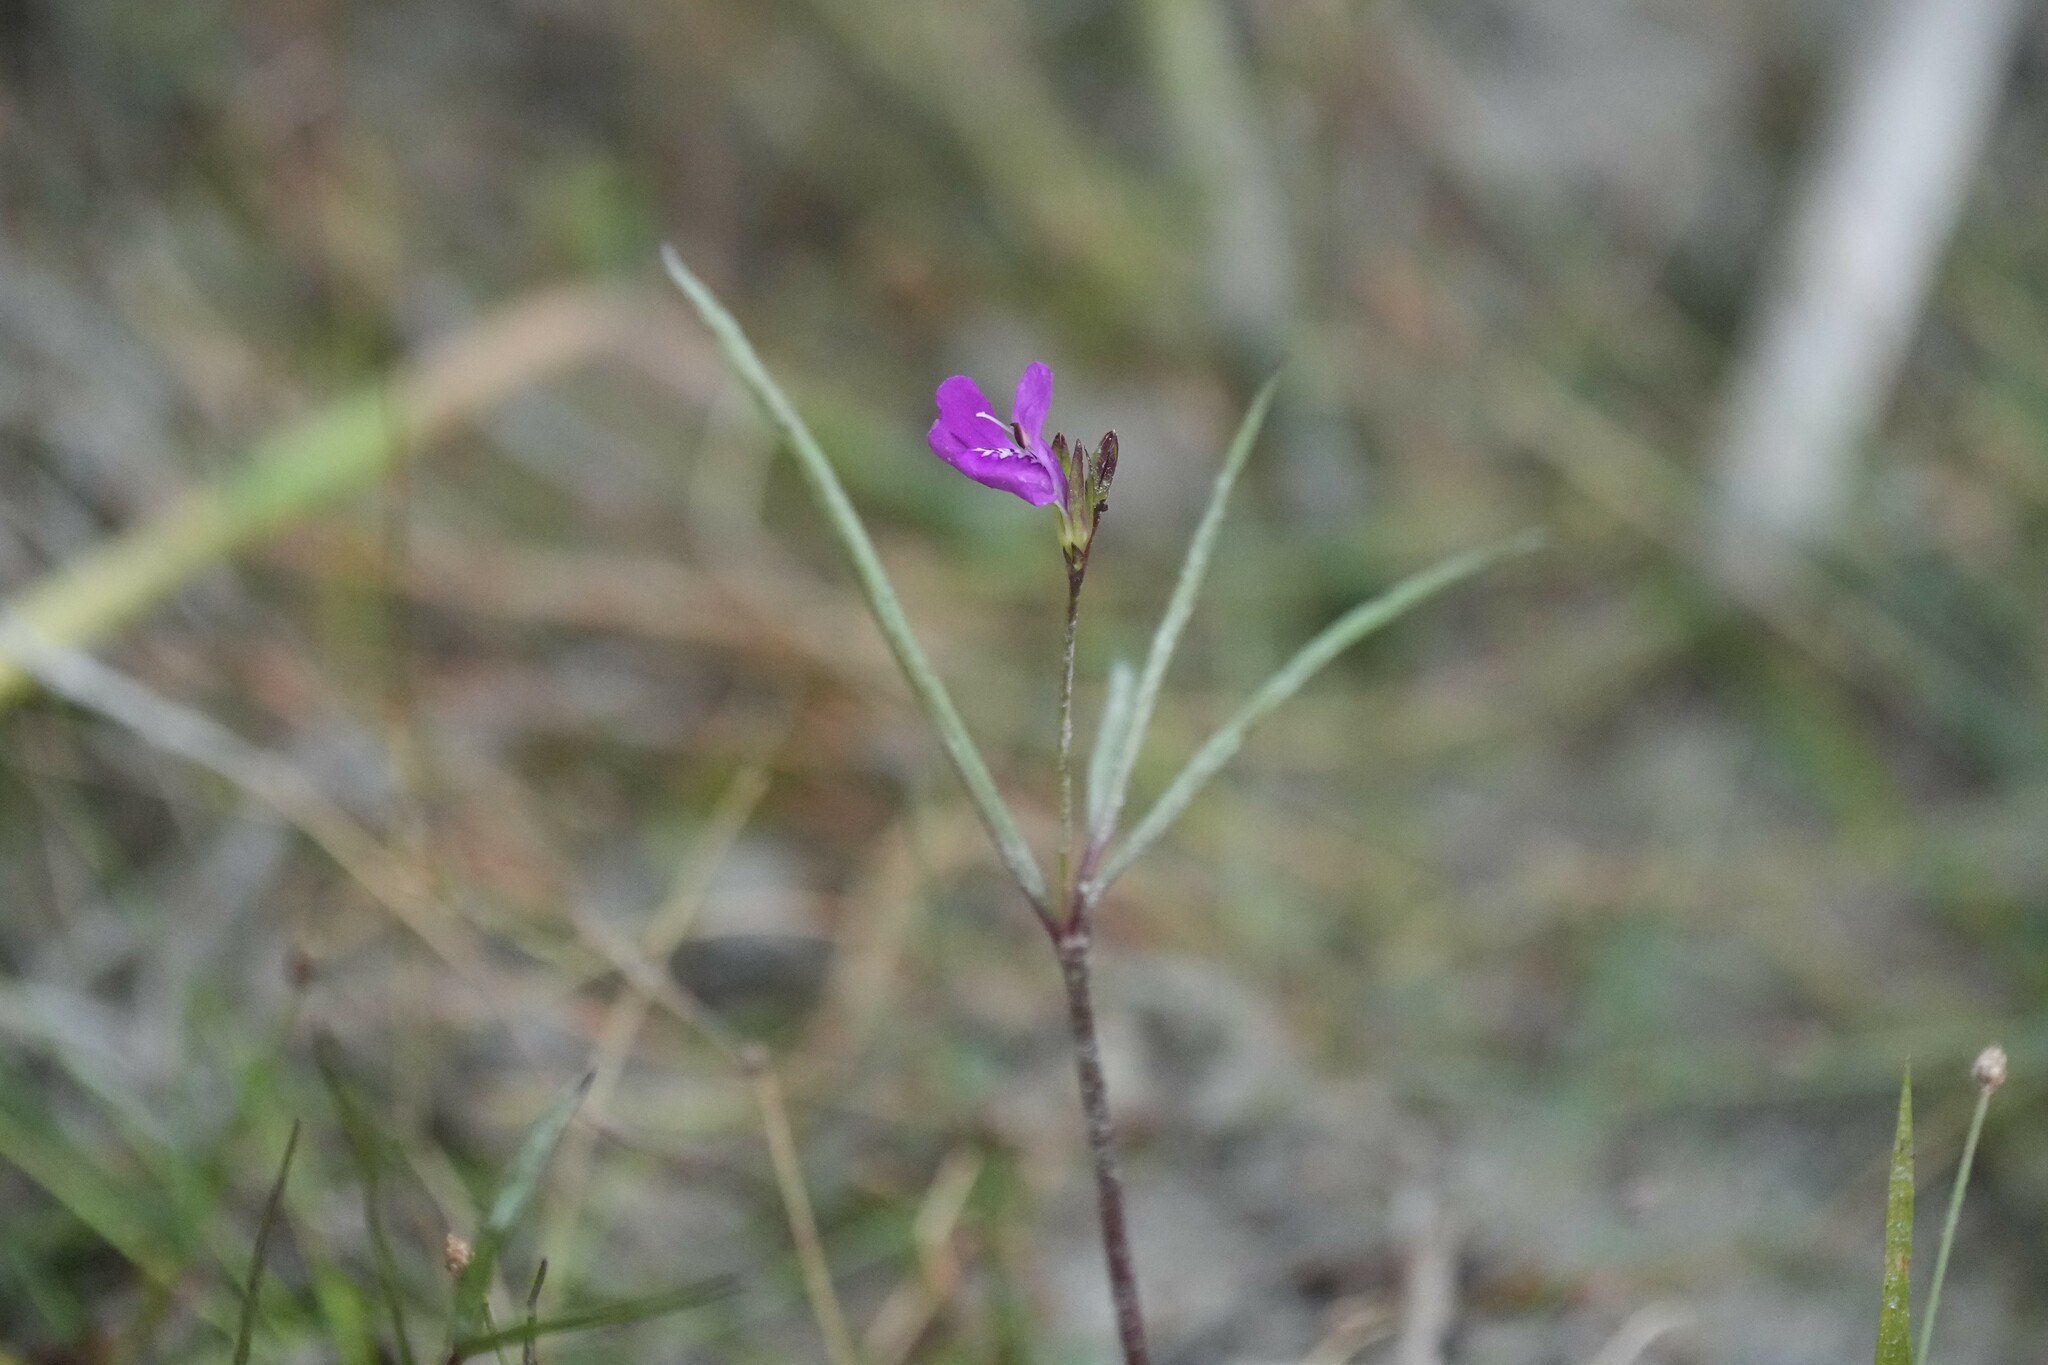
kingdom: Plantae
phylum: Tracheophyta
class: Magnoliopsida
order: Lamiales
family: Acanthaceae
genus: Dianthera
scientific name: Dianthera angusta
